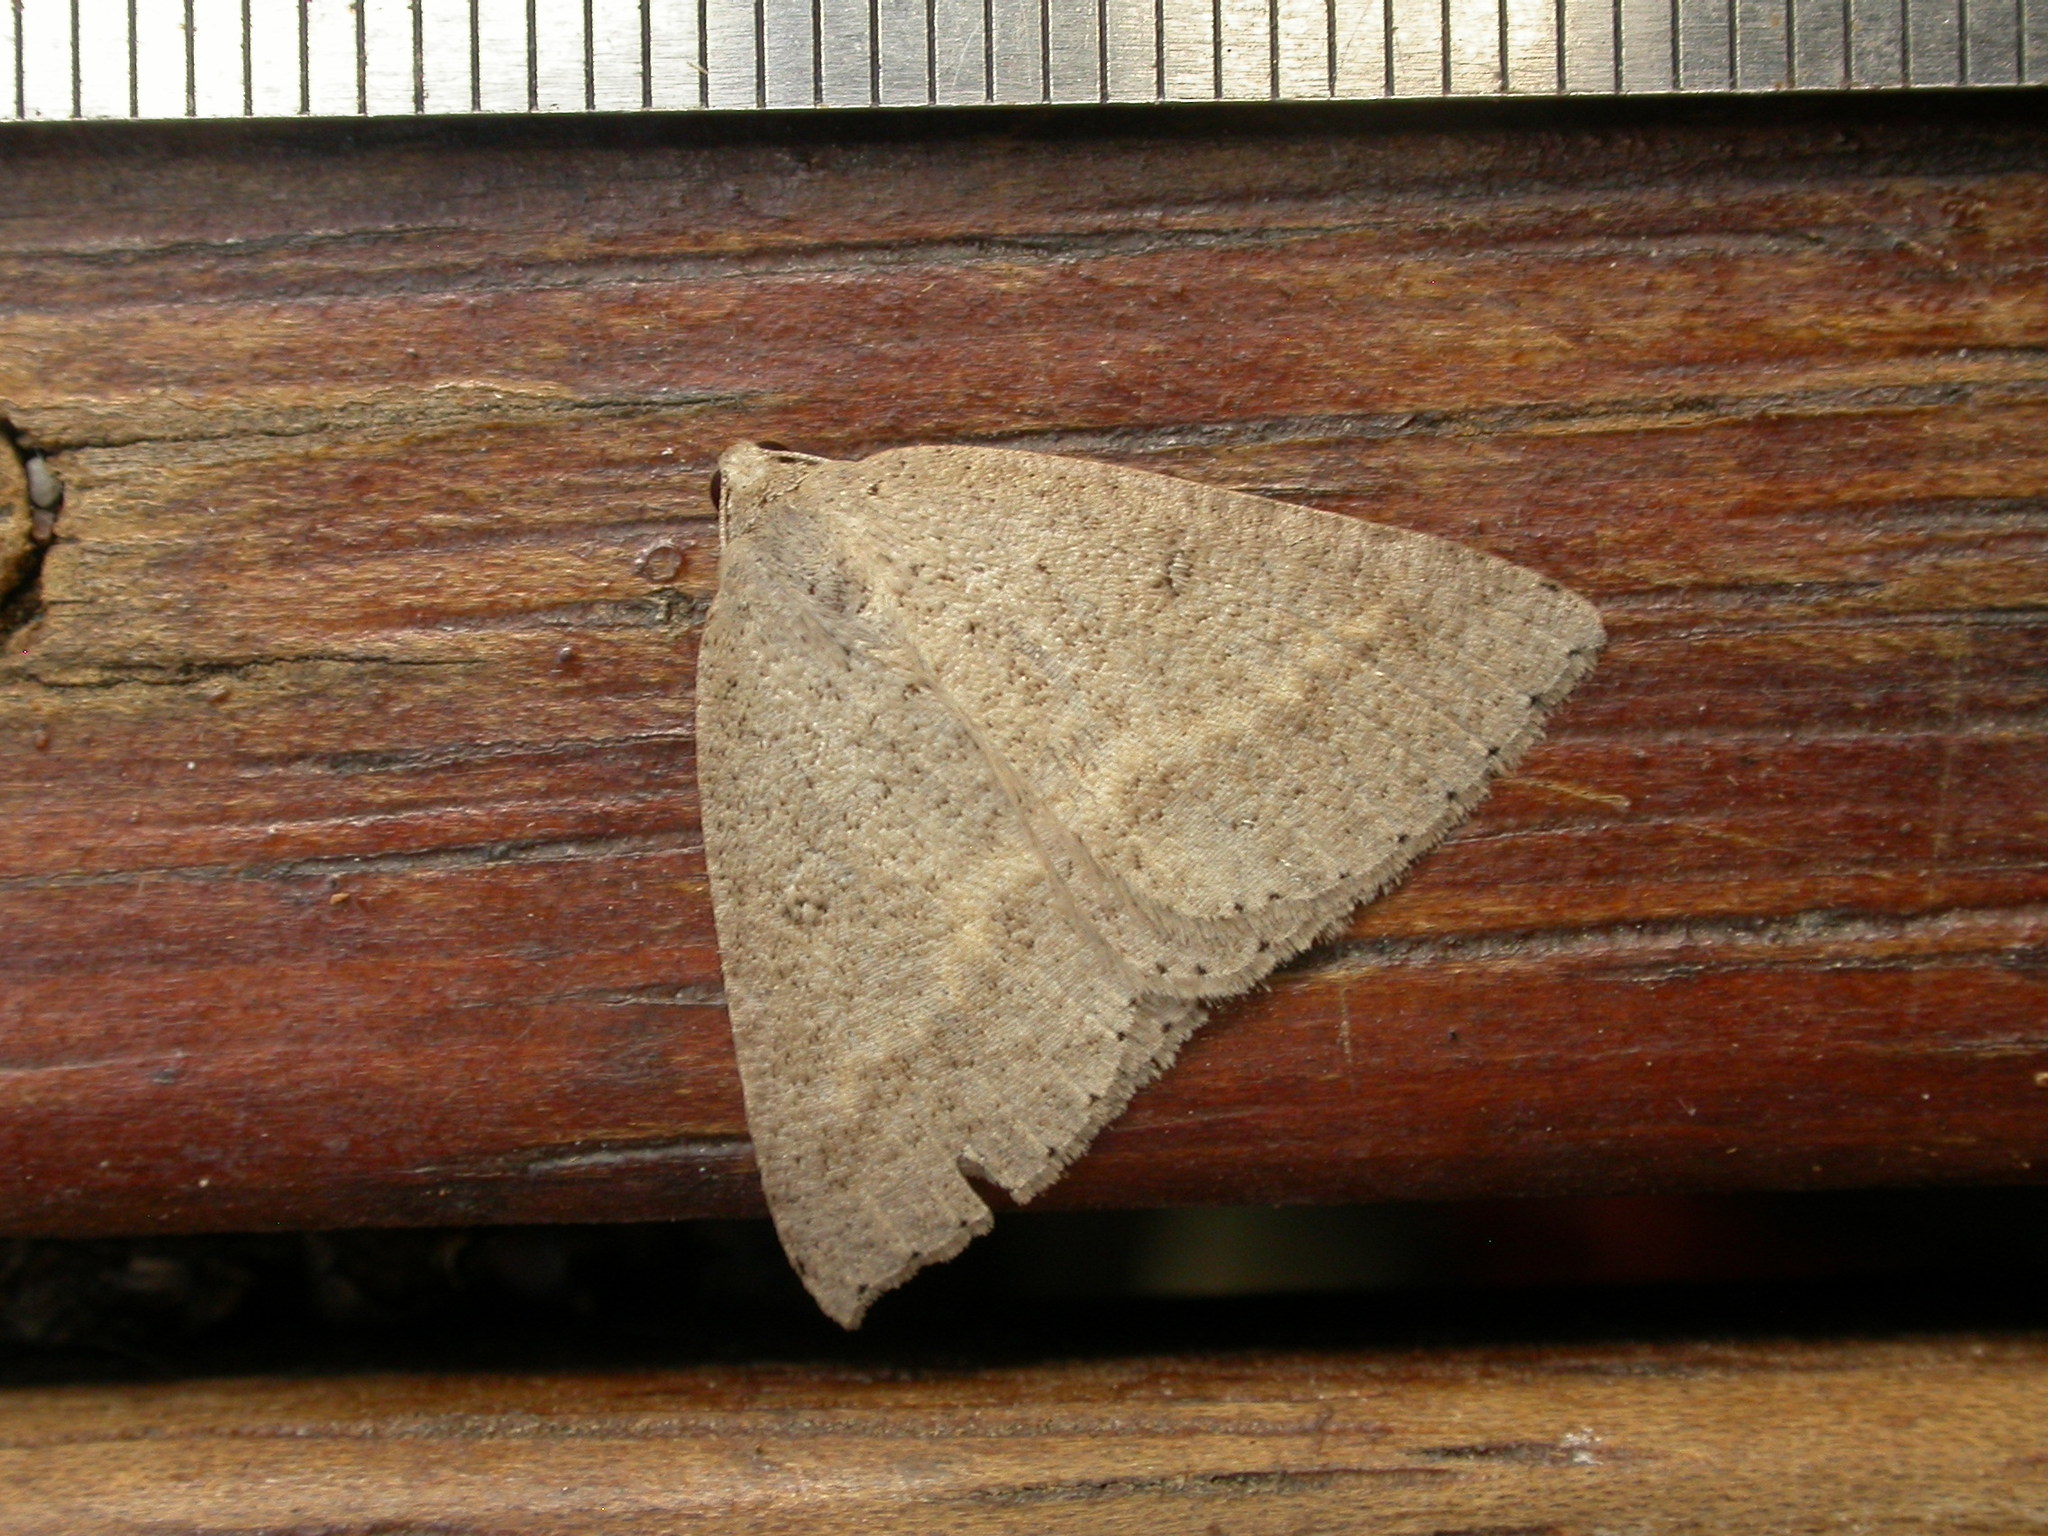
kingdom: Animalia
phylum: Arthropoda
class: Insecta
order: Lepidoptera
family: Geometridae
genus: Nearcha
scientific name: Nearcha nullata
